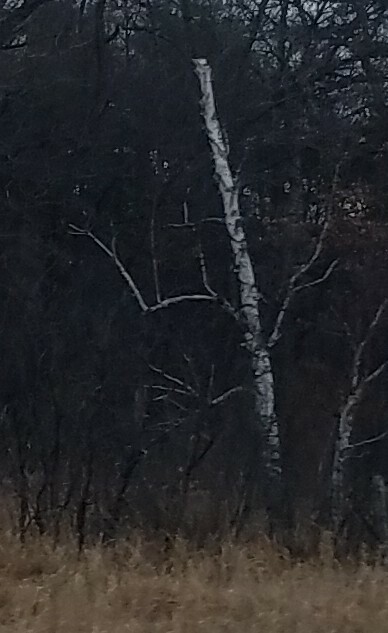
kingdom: Plantae
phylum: Tracheophyta
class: Magnoliopsida
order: Fagales
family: Betulaceae
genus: Betula
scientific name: Betula papyrifera
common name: Paper birch
